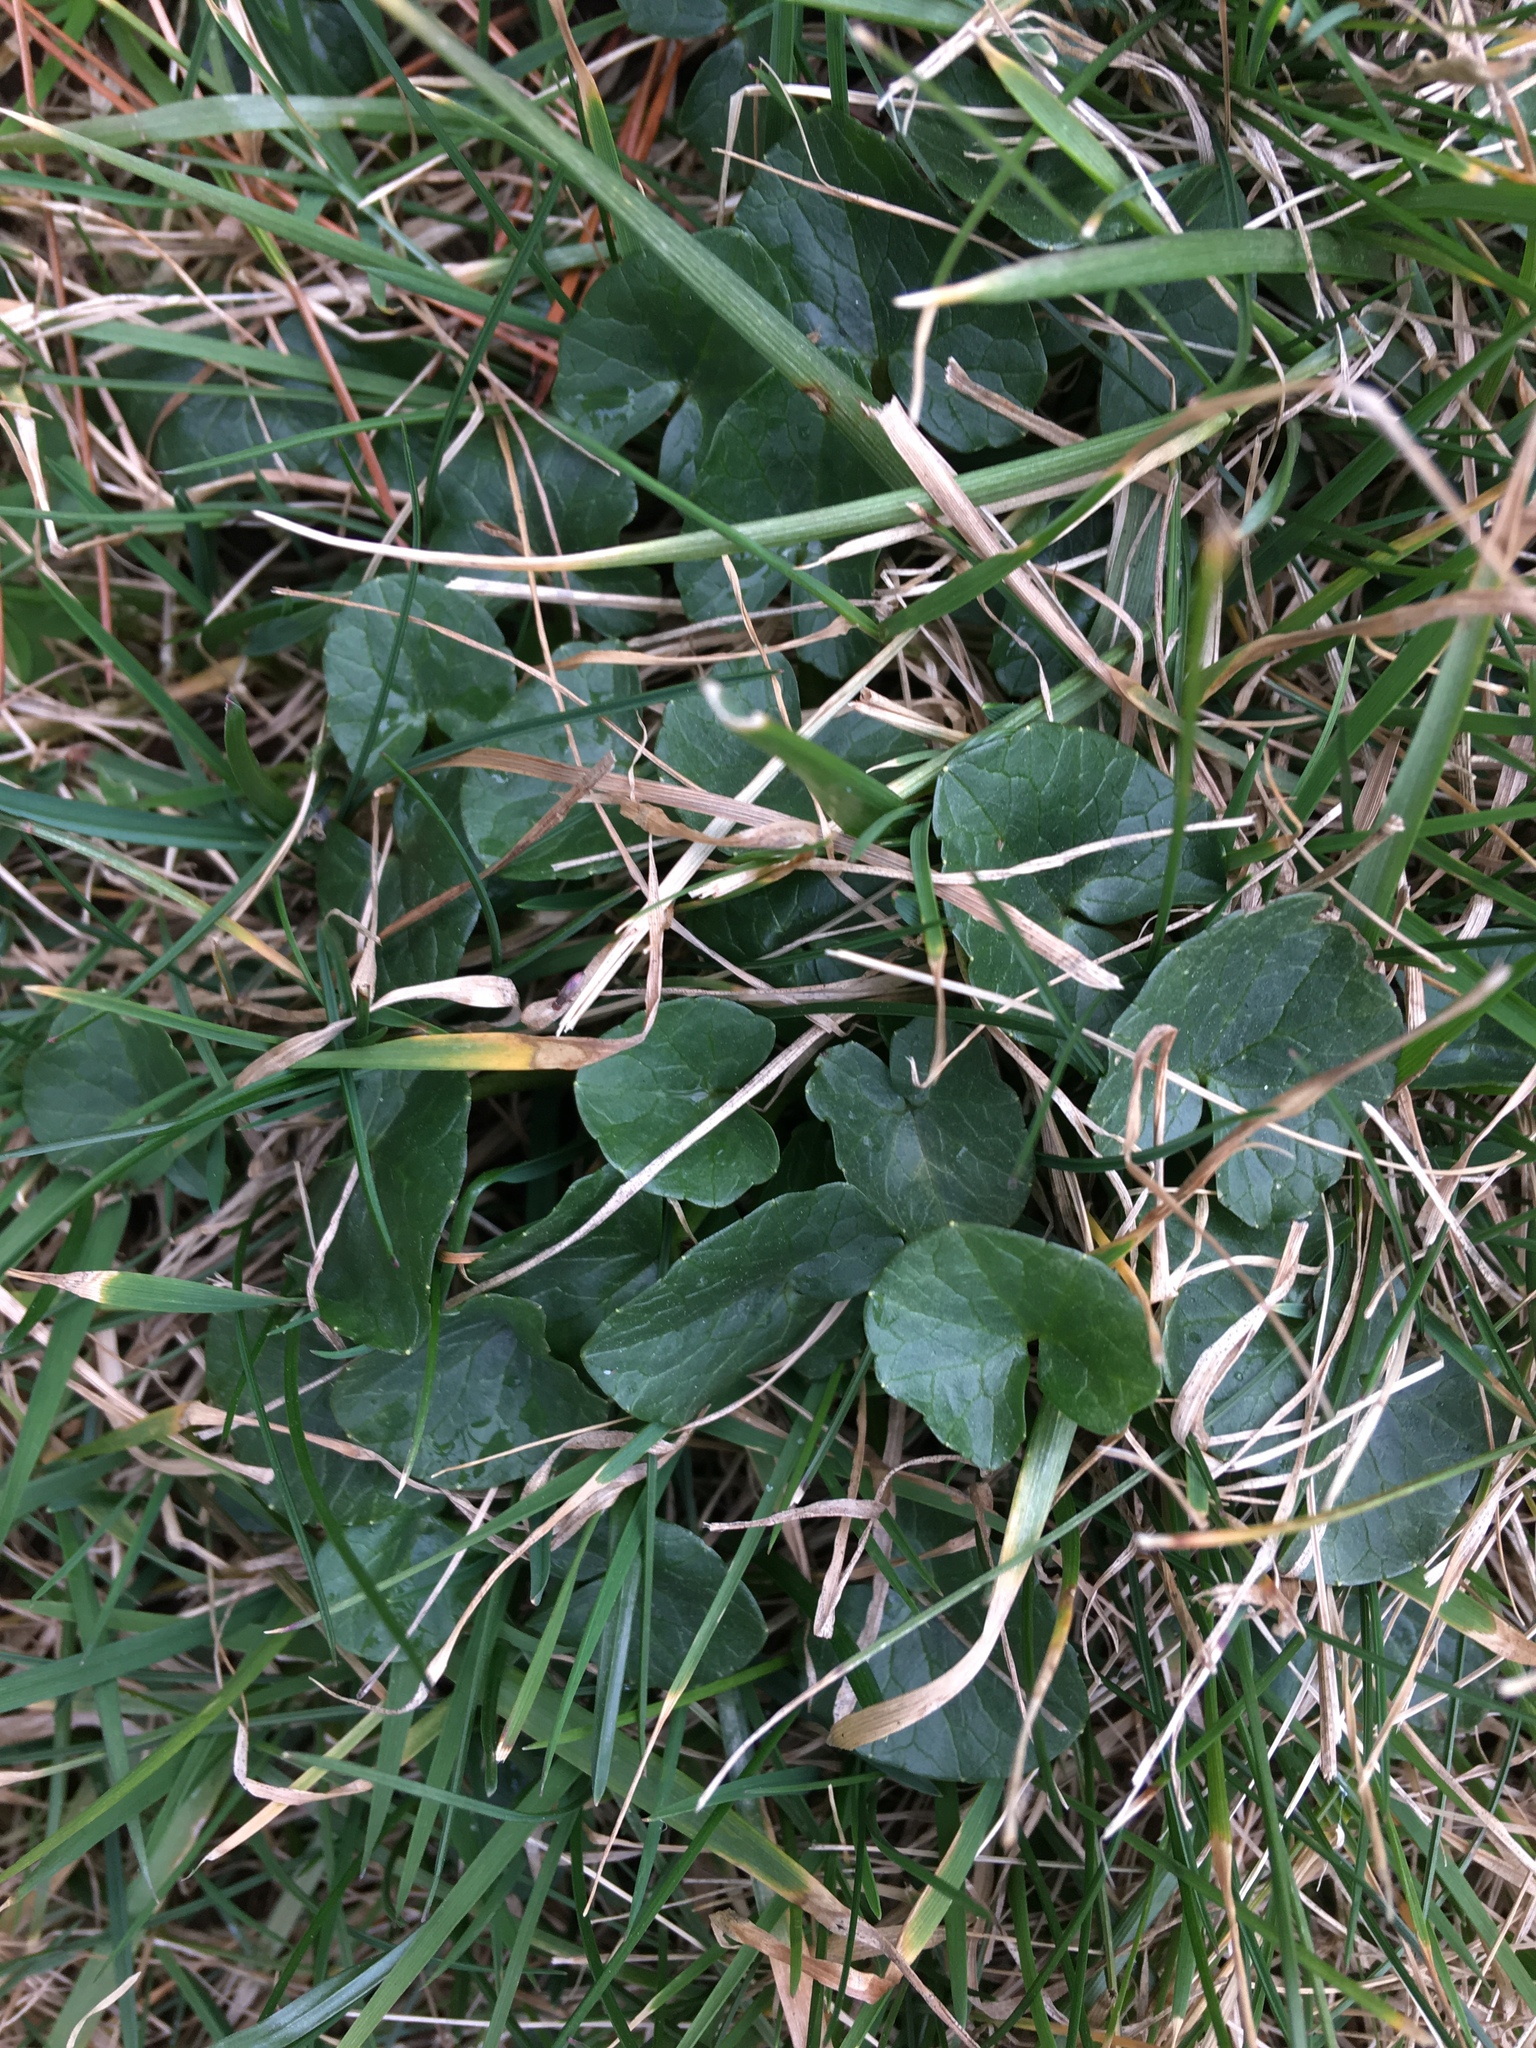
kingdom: Plantae
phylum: Tracheophyta
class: Magnoliopsida
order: Ranunculales
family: Ranunculaceae
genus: Ficaria
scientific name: Ficaria verna
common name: Lesser celandine
